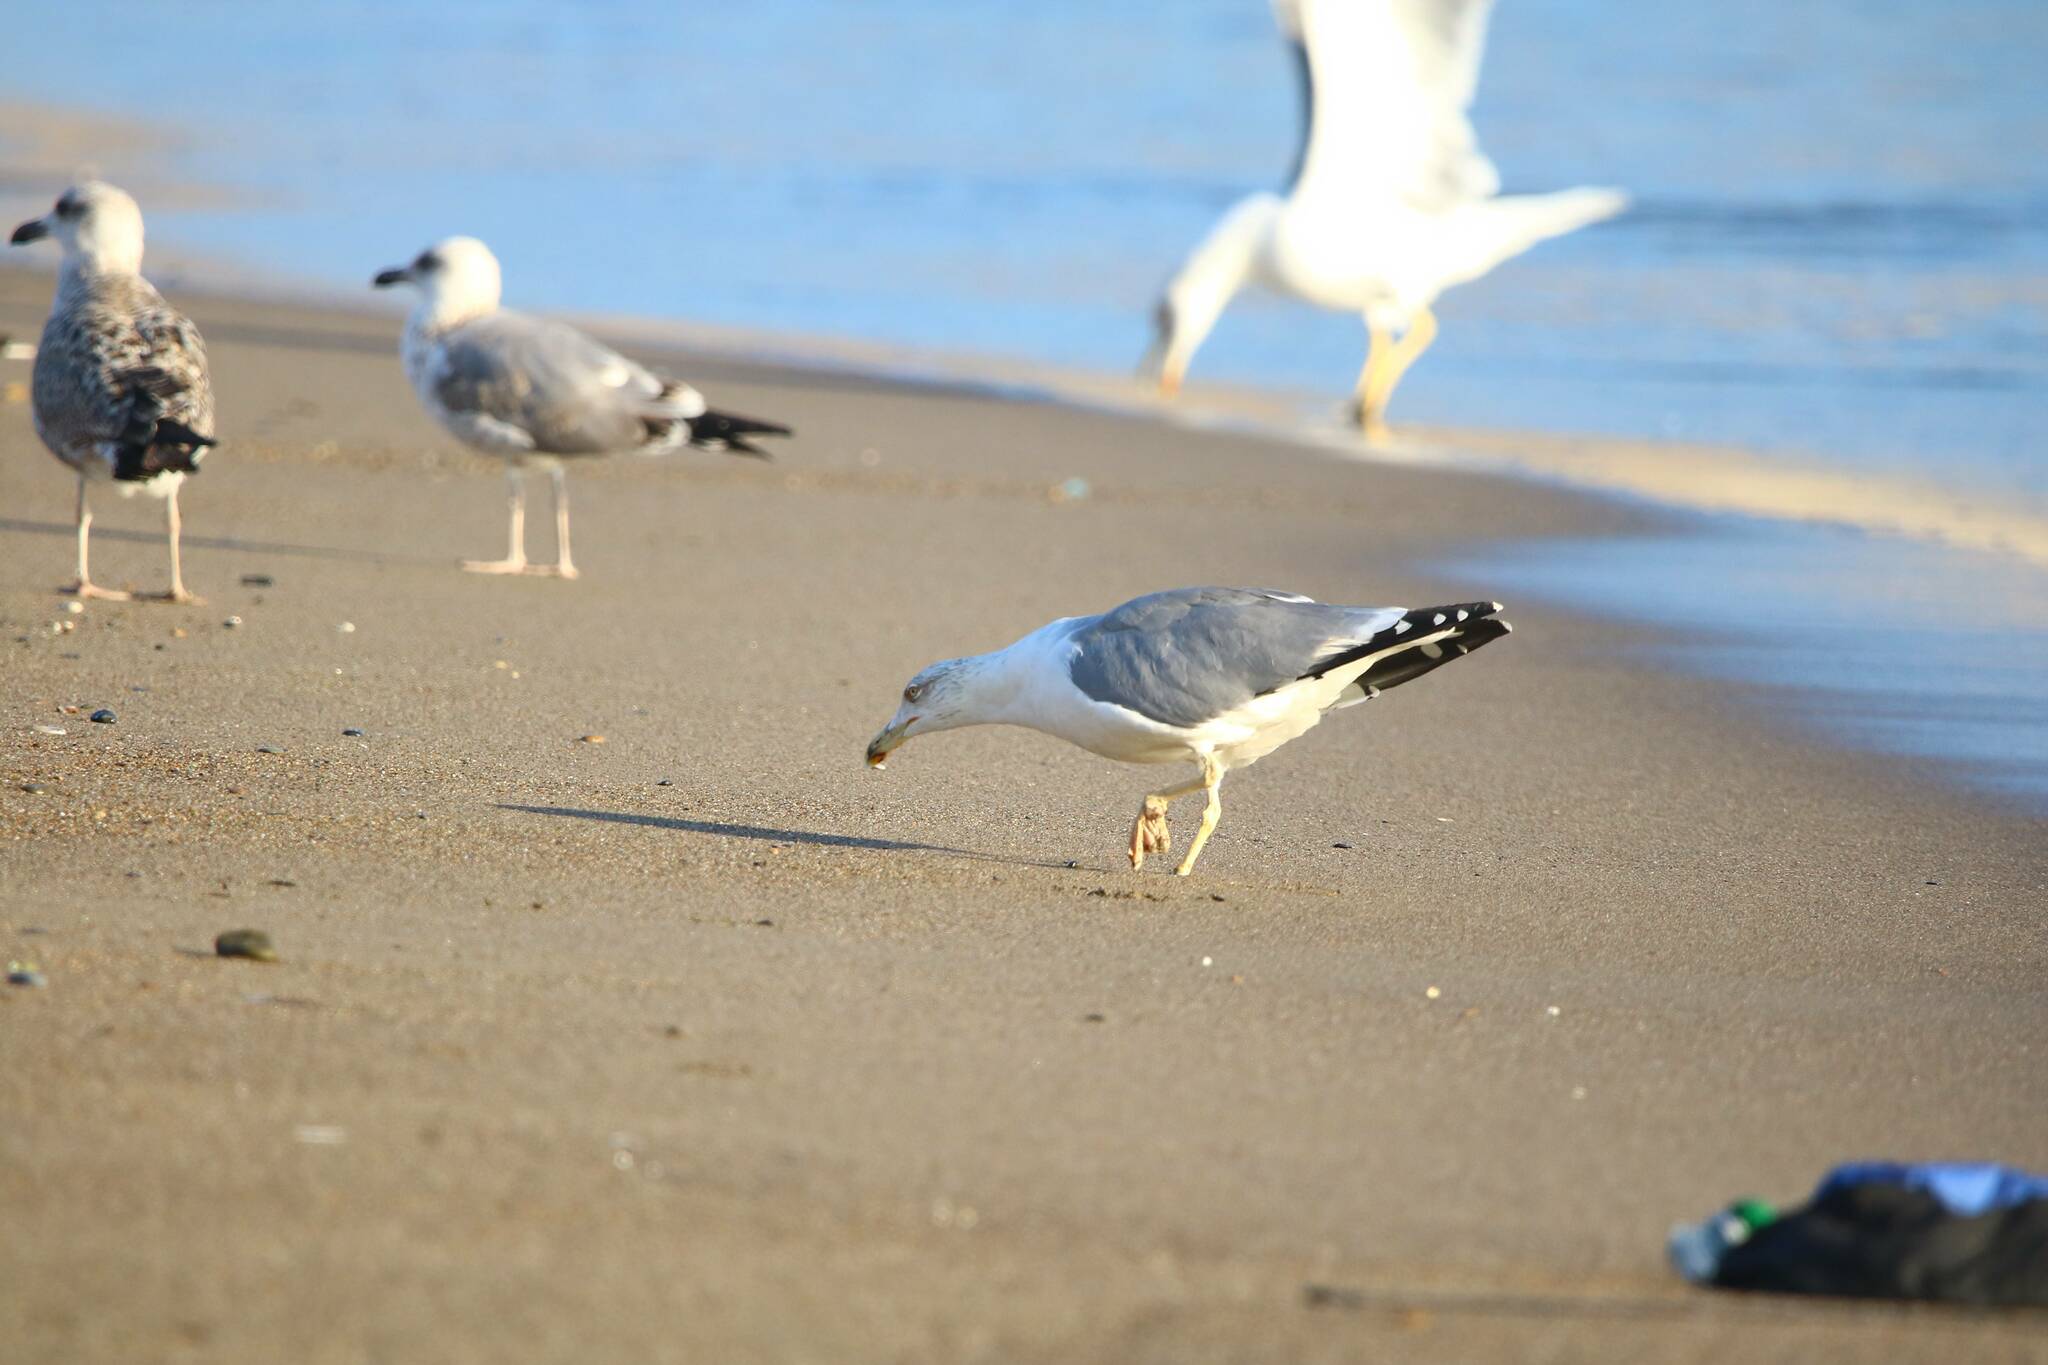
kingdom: Animalia
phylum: Chordata
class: Aves
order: Charadriiformes
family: Laridae
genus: Larus
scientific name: Larus michahellis
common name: Yellow-legged gull
